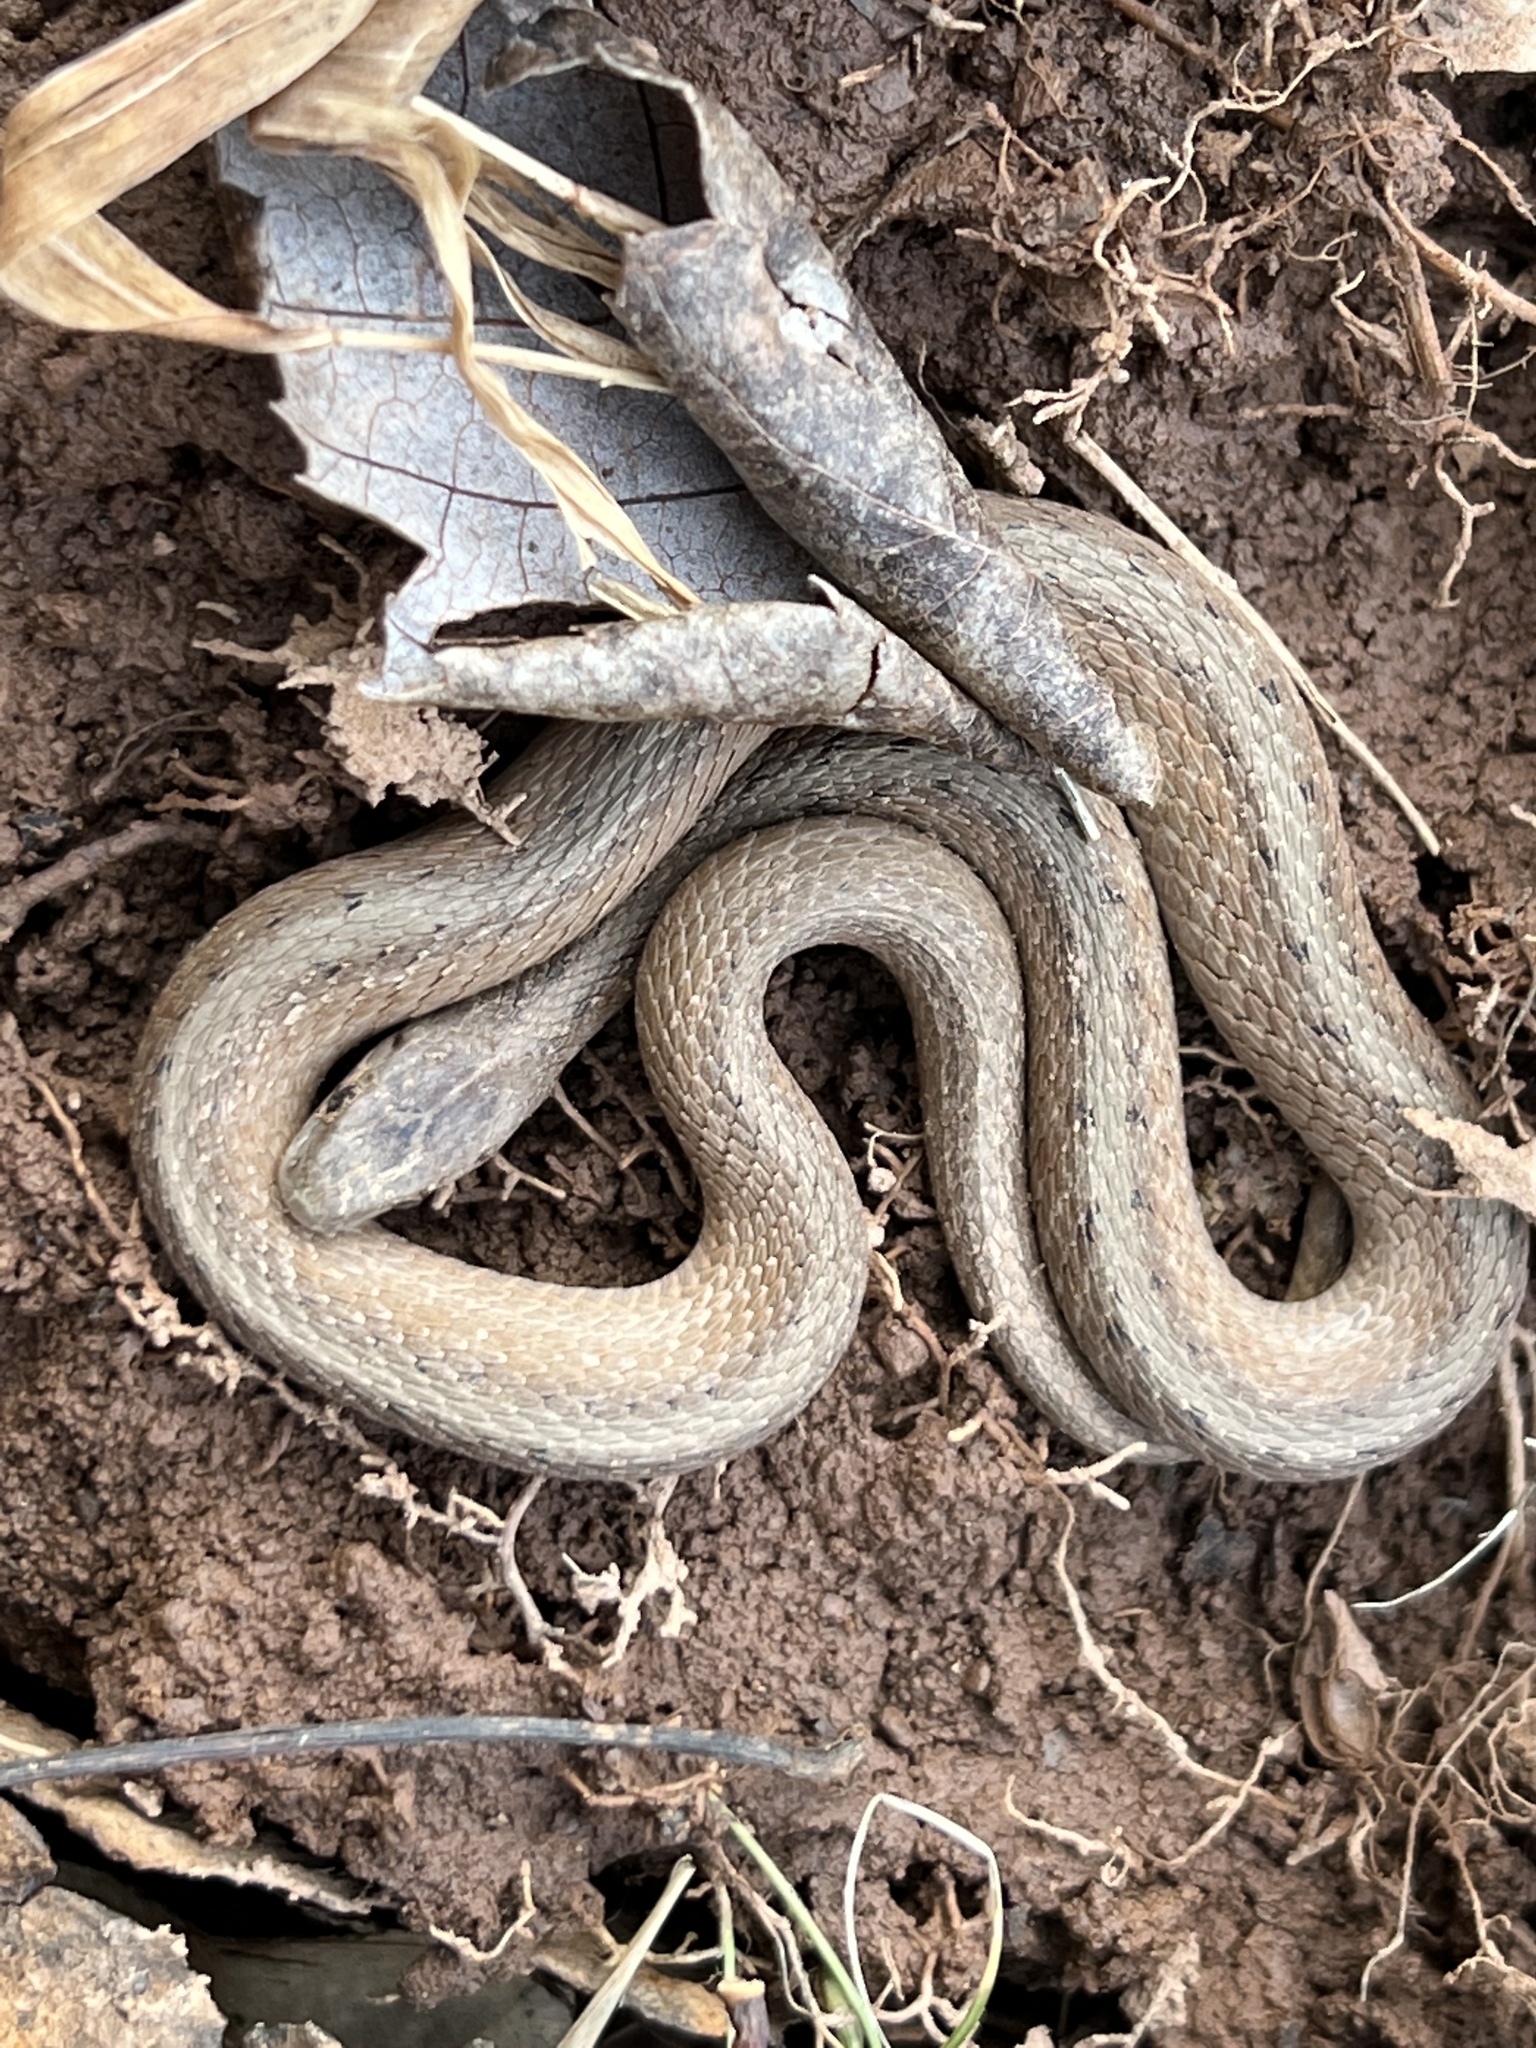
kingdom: Animalia
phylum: Chordata
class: Squamata
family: Colubridae
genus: Storeria
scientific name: Storeria dekayi
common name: (dekay’s) brown snake
